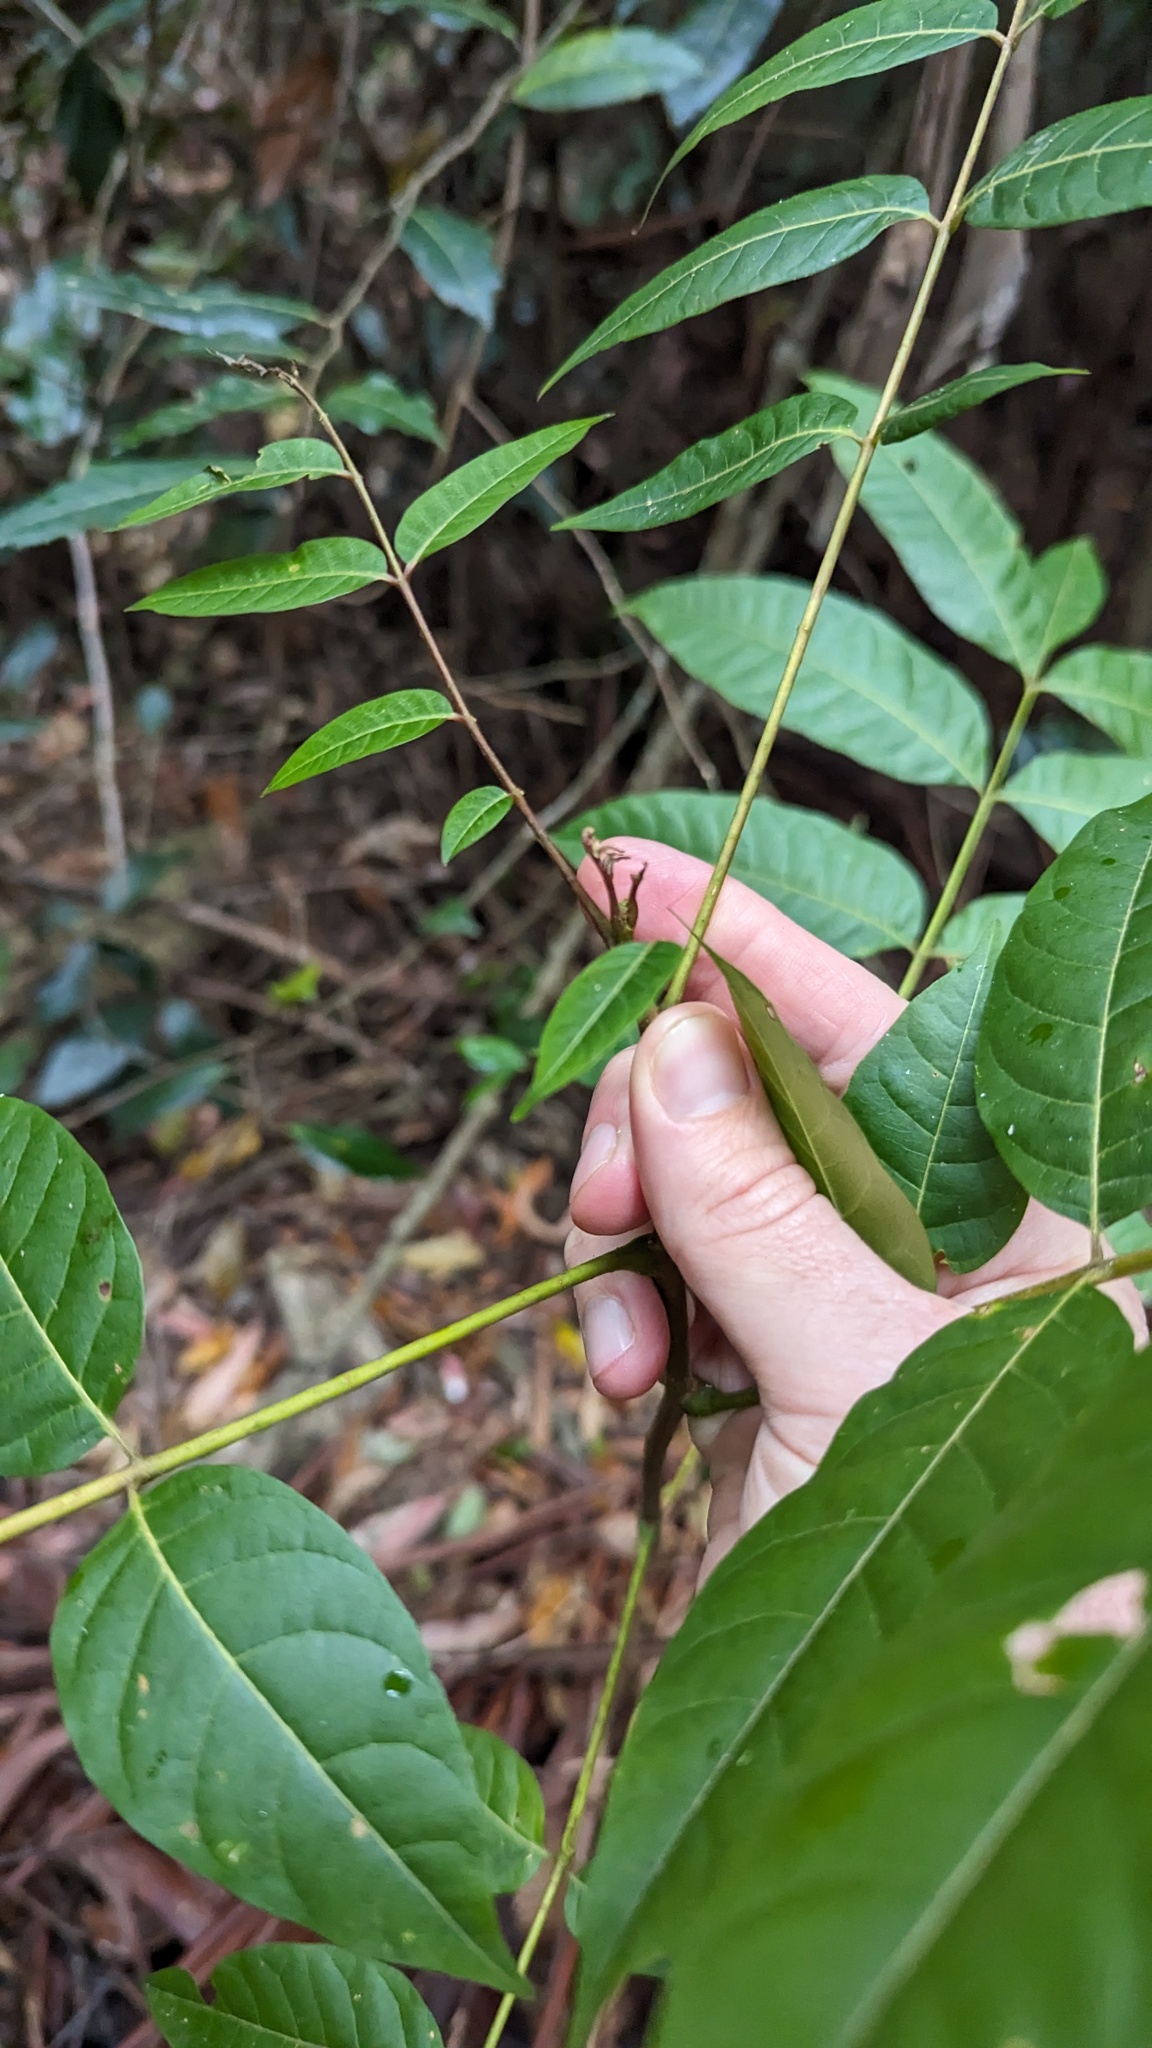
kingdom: Plantae
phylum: Tracheophyta
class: Magnoliopsida
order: Sapindales
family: Meliaceae
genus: Toona
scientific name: Toona ciliata
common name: Australian redcedar
